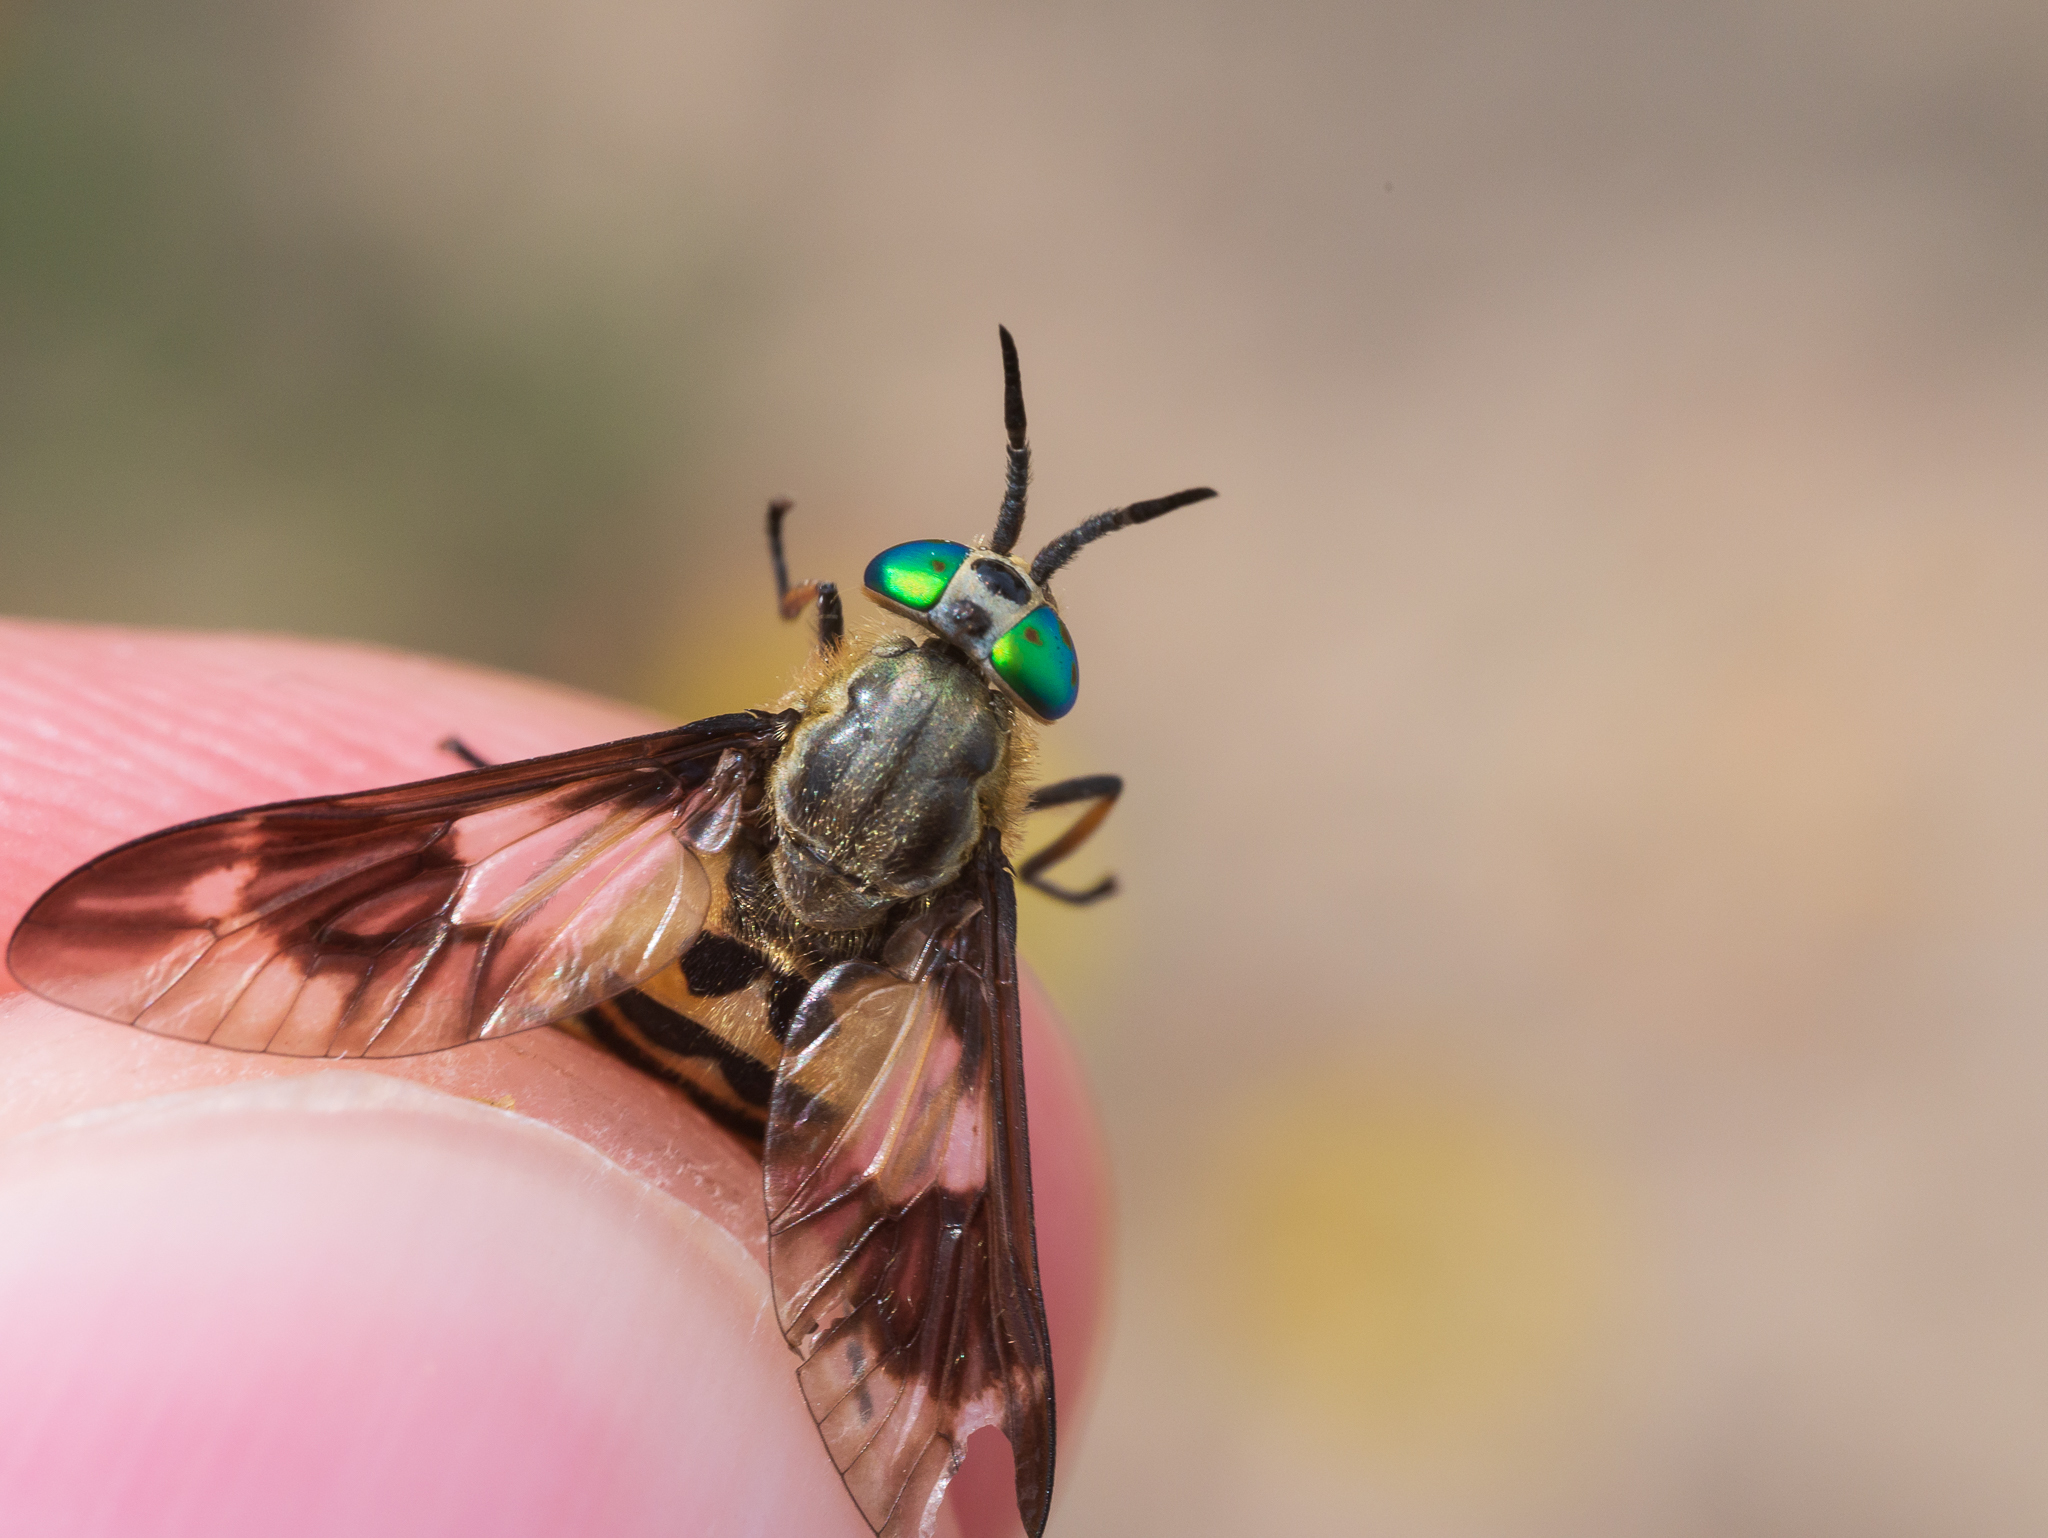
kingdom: Animalia
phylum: Arthropoda
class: Insecta
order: Diptera
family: Tabanidae
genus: Chrysops
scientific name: Chrysops relictus
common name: Twin-lobed deerfly
